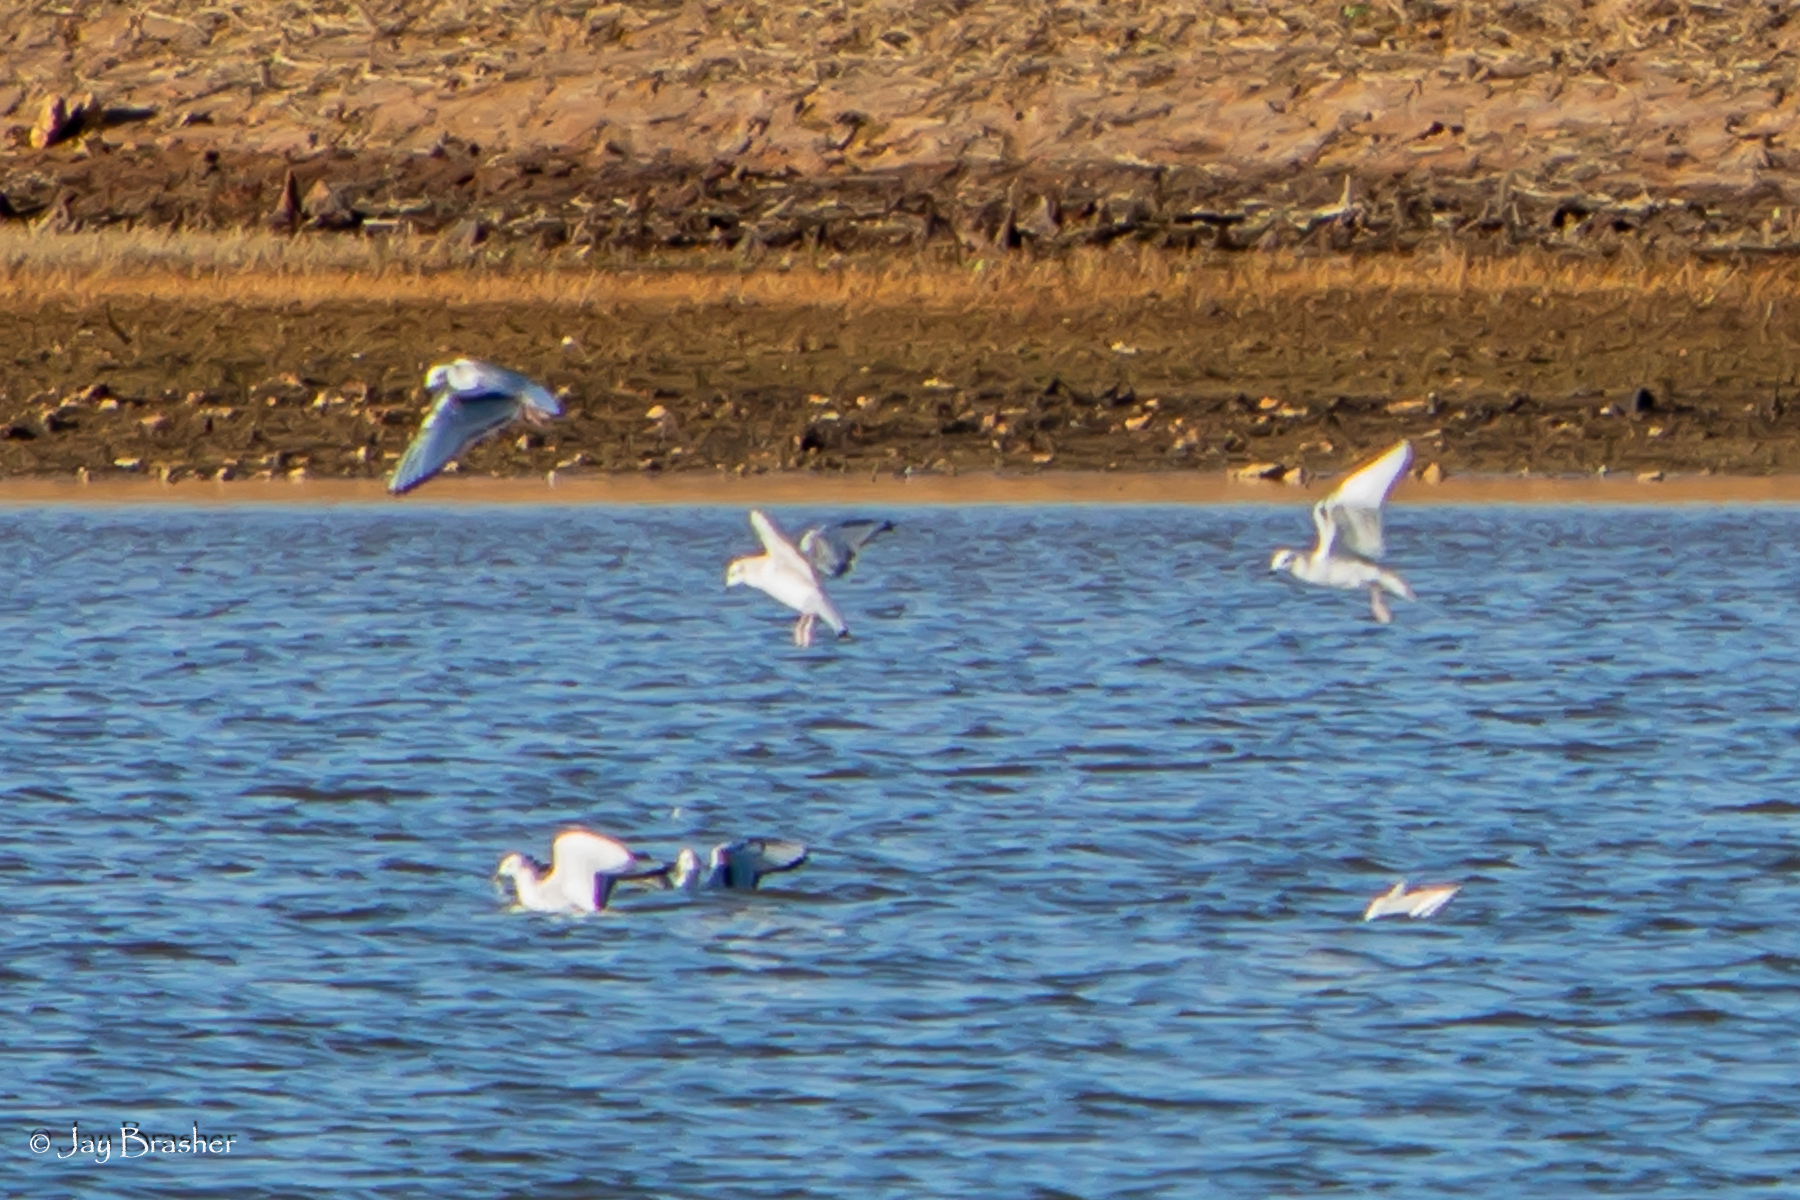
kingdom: Animalia
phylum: Chordata
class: Aves
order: Charadriiformes
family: Laridae
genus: Chroicocephalus
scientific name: Chroicocephalus philadelphia
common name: Bonaparte's gull
